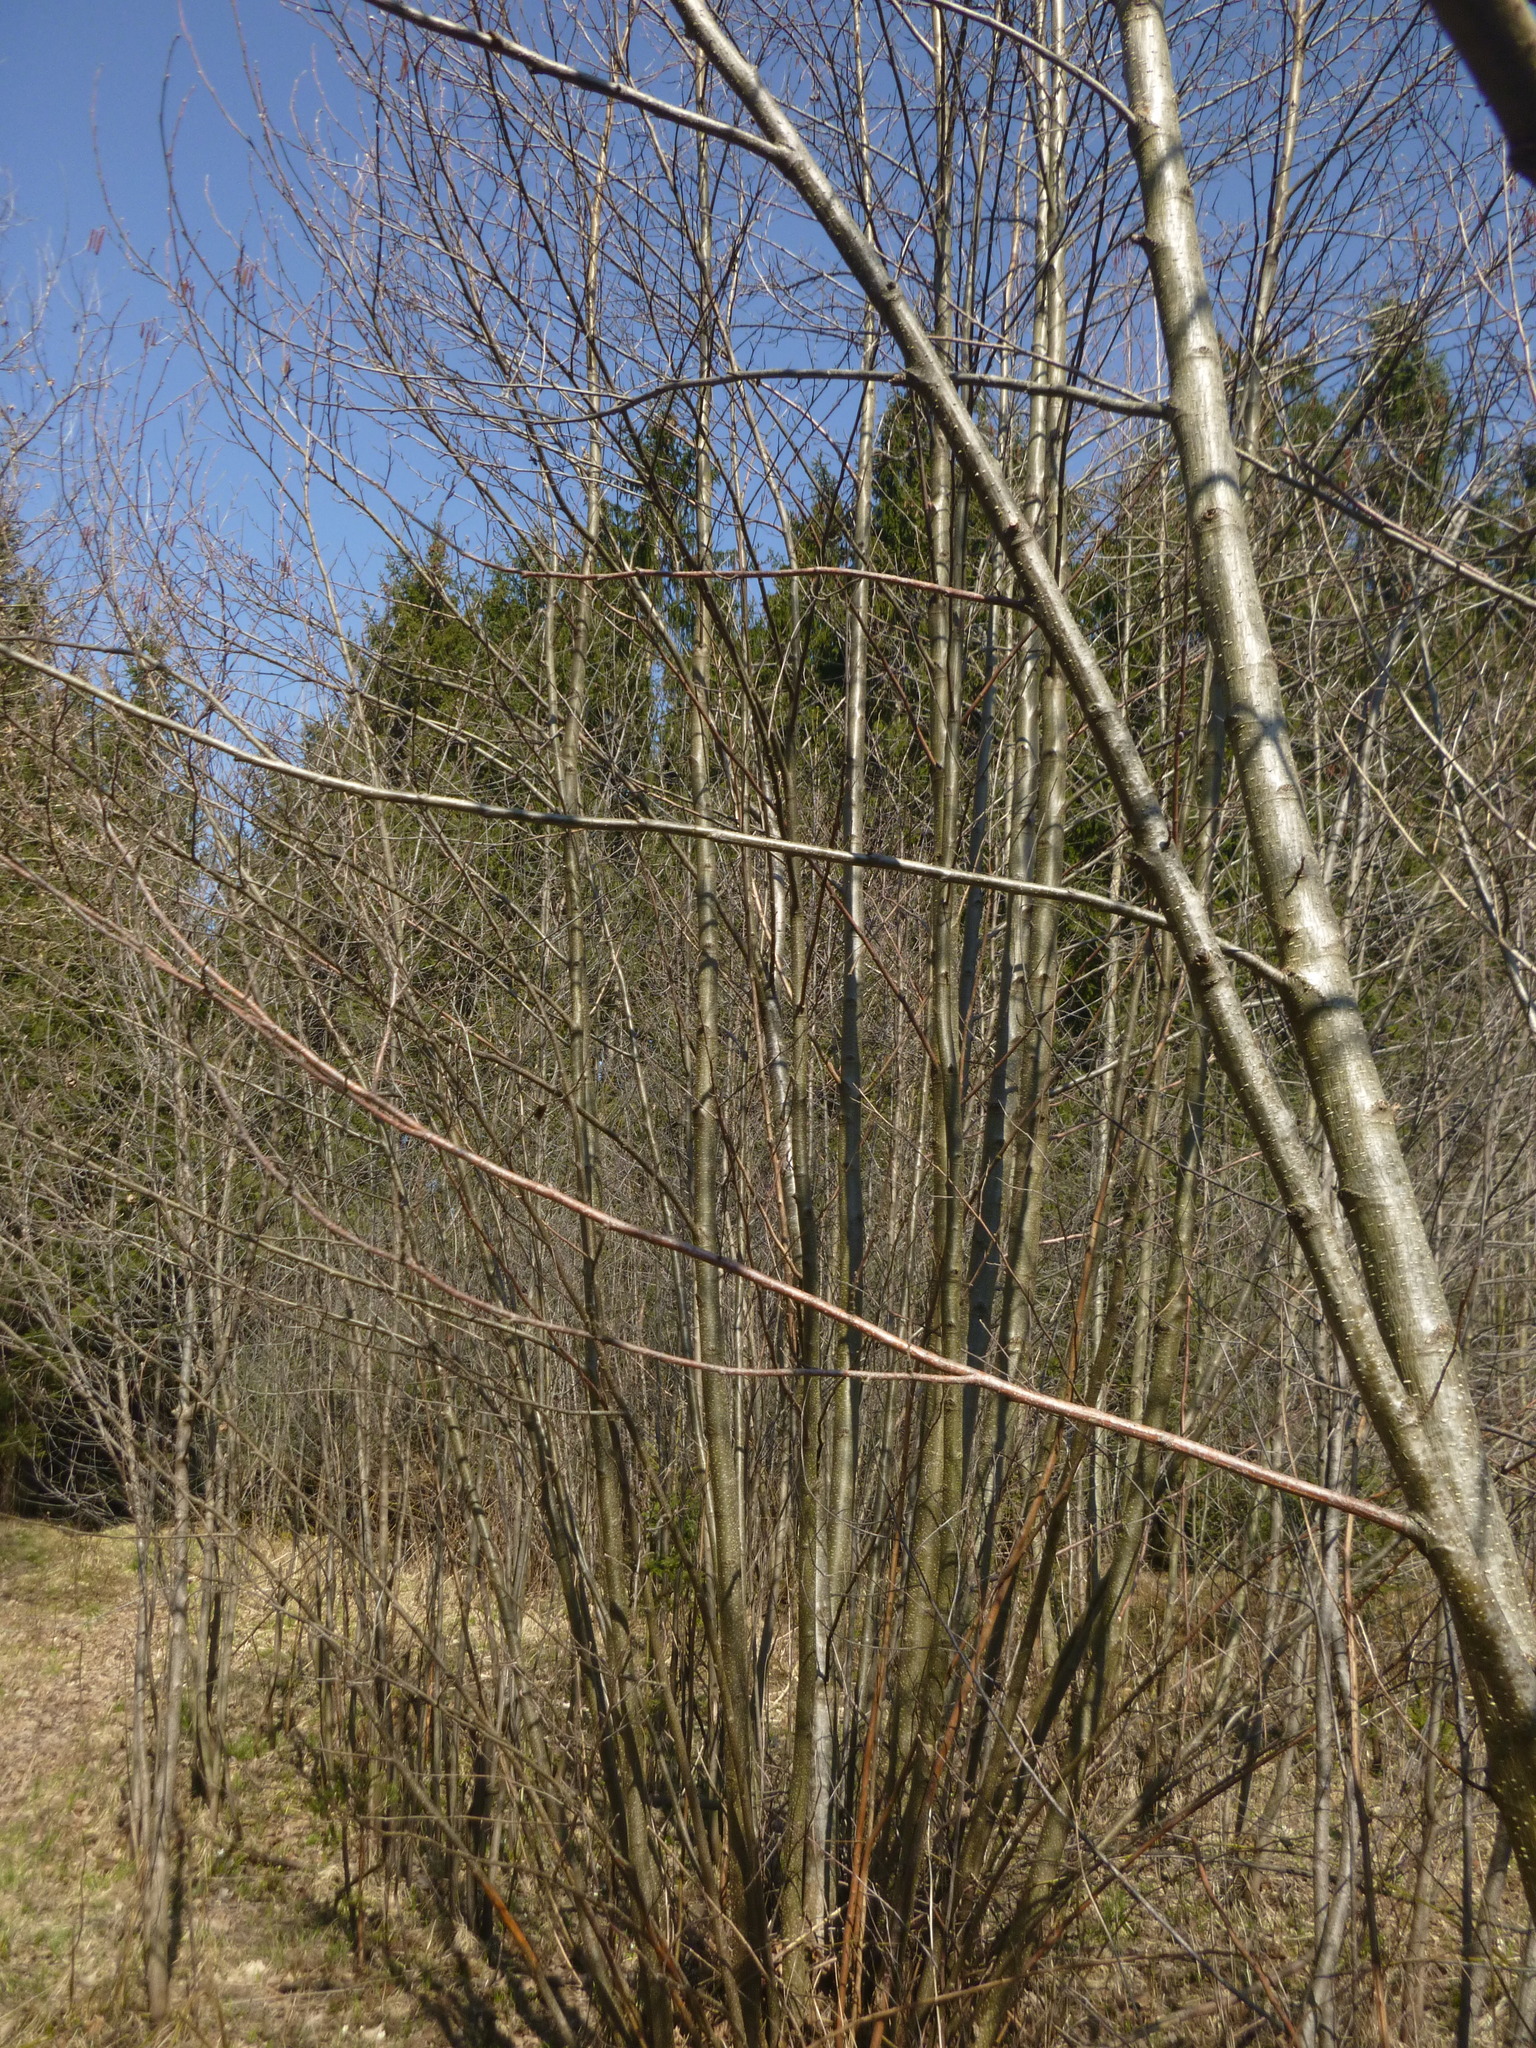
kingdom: Plantae
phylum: Tracheophyta
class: Magnoliopsida
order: Fagales
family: Betulaceae
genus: Alnus
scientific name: Alnus glutinosa
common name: Black alder
